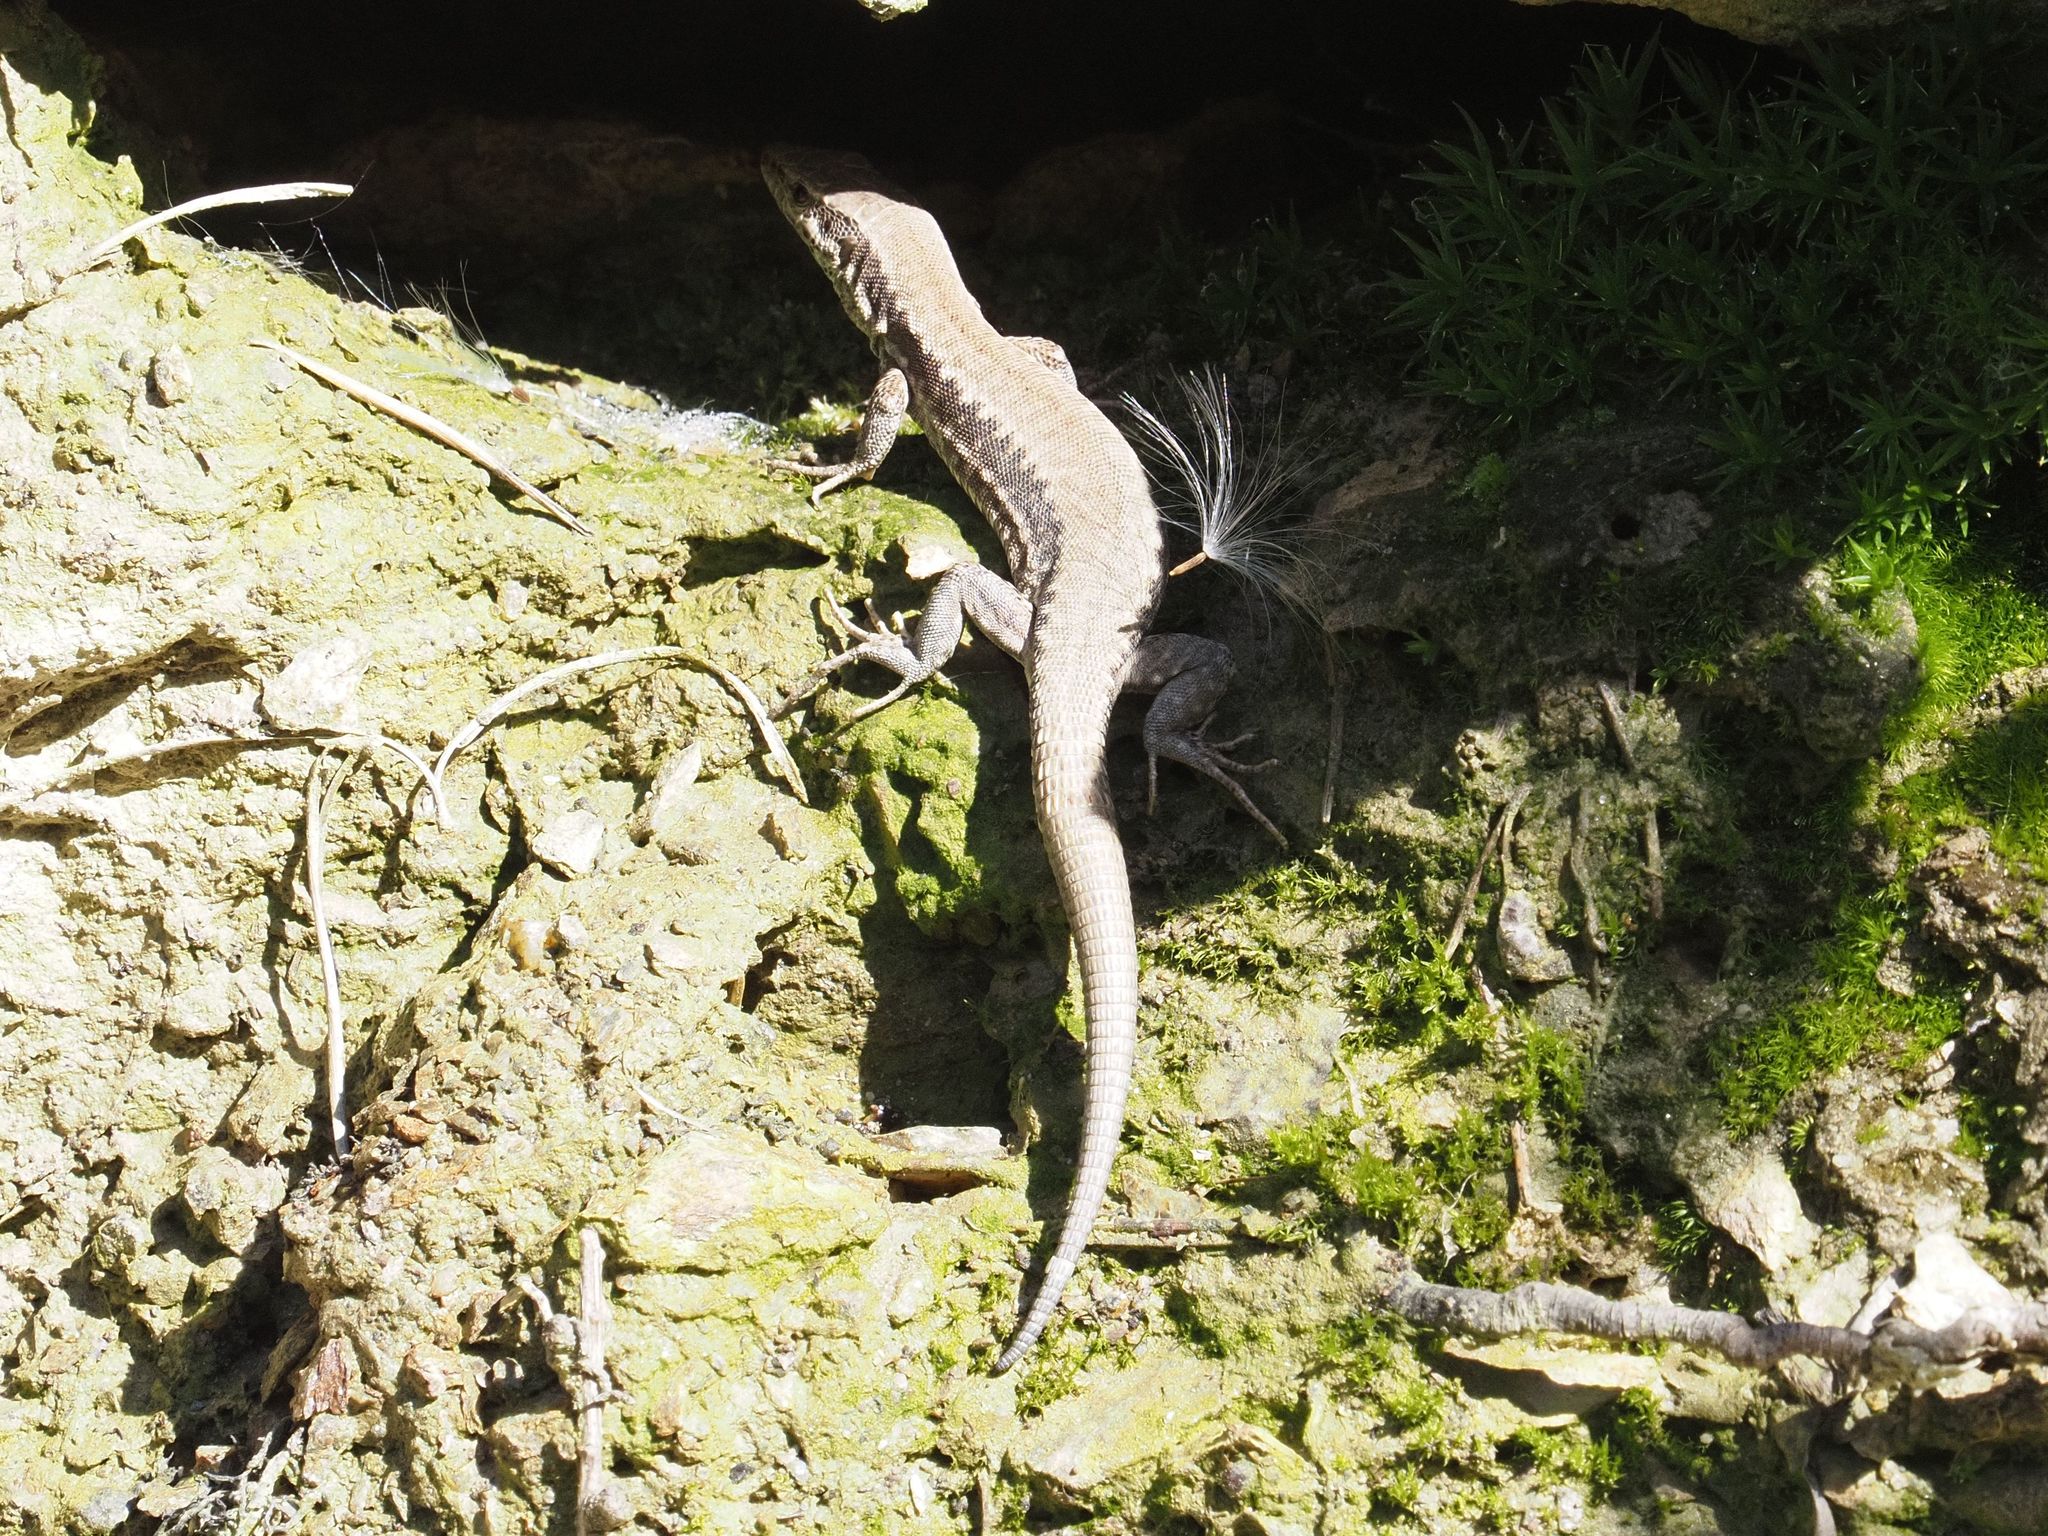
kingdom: Animalia
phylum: Chordata
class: Squamata
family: Lacertidae
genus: Podarcis
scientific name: Podarcis muralis
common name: Common wall lizard
